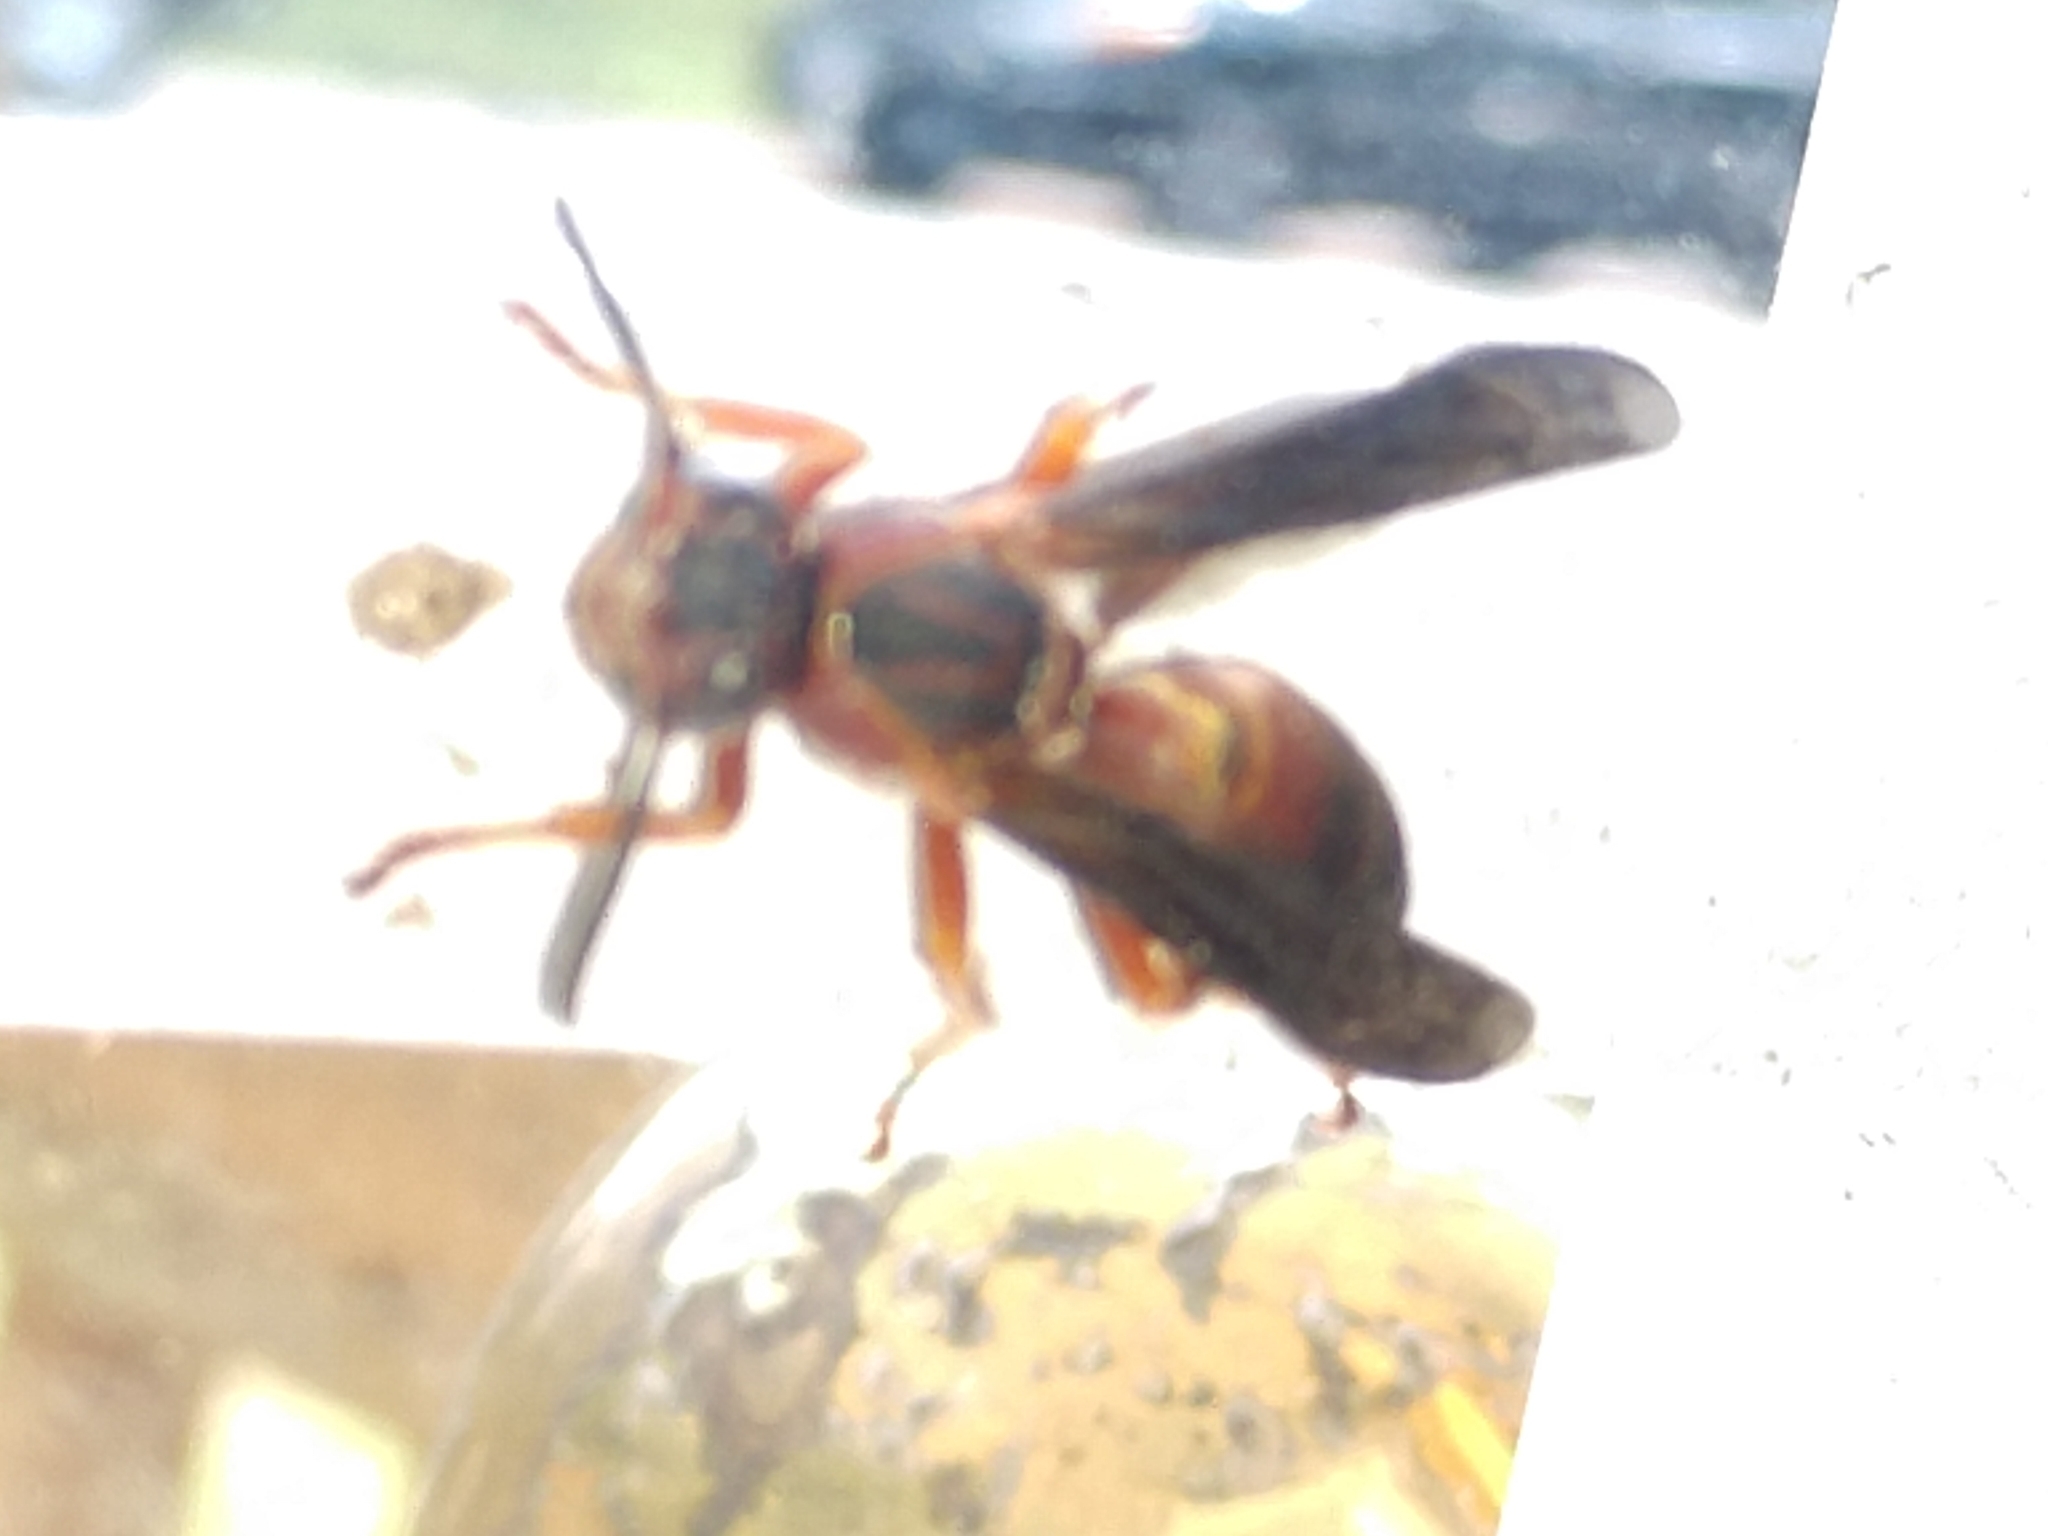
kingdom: Animalia
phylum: Arthropoda
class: Insecta
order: Hymenoptera
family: Eumenidae
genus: Polistes
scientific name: Polistes metricus
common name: Metric paper wasp
